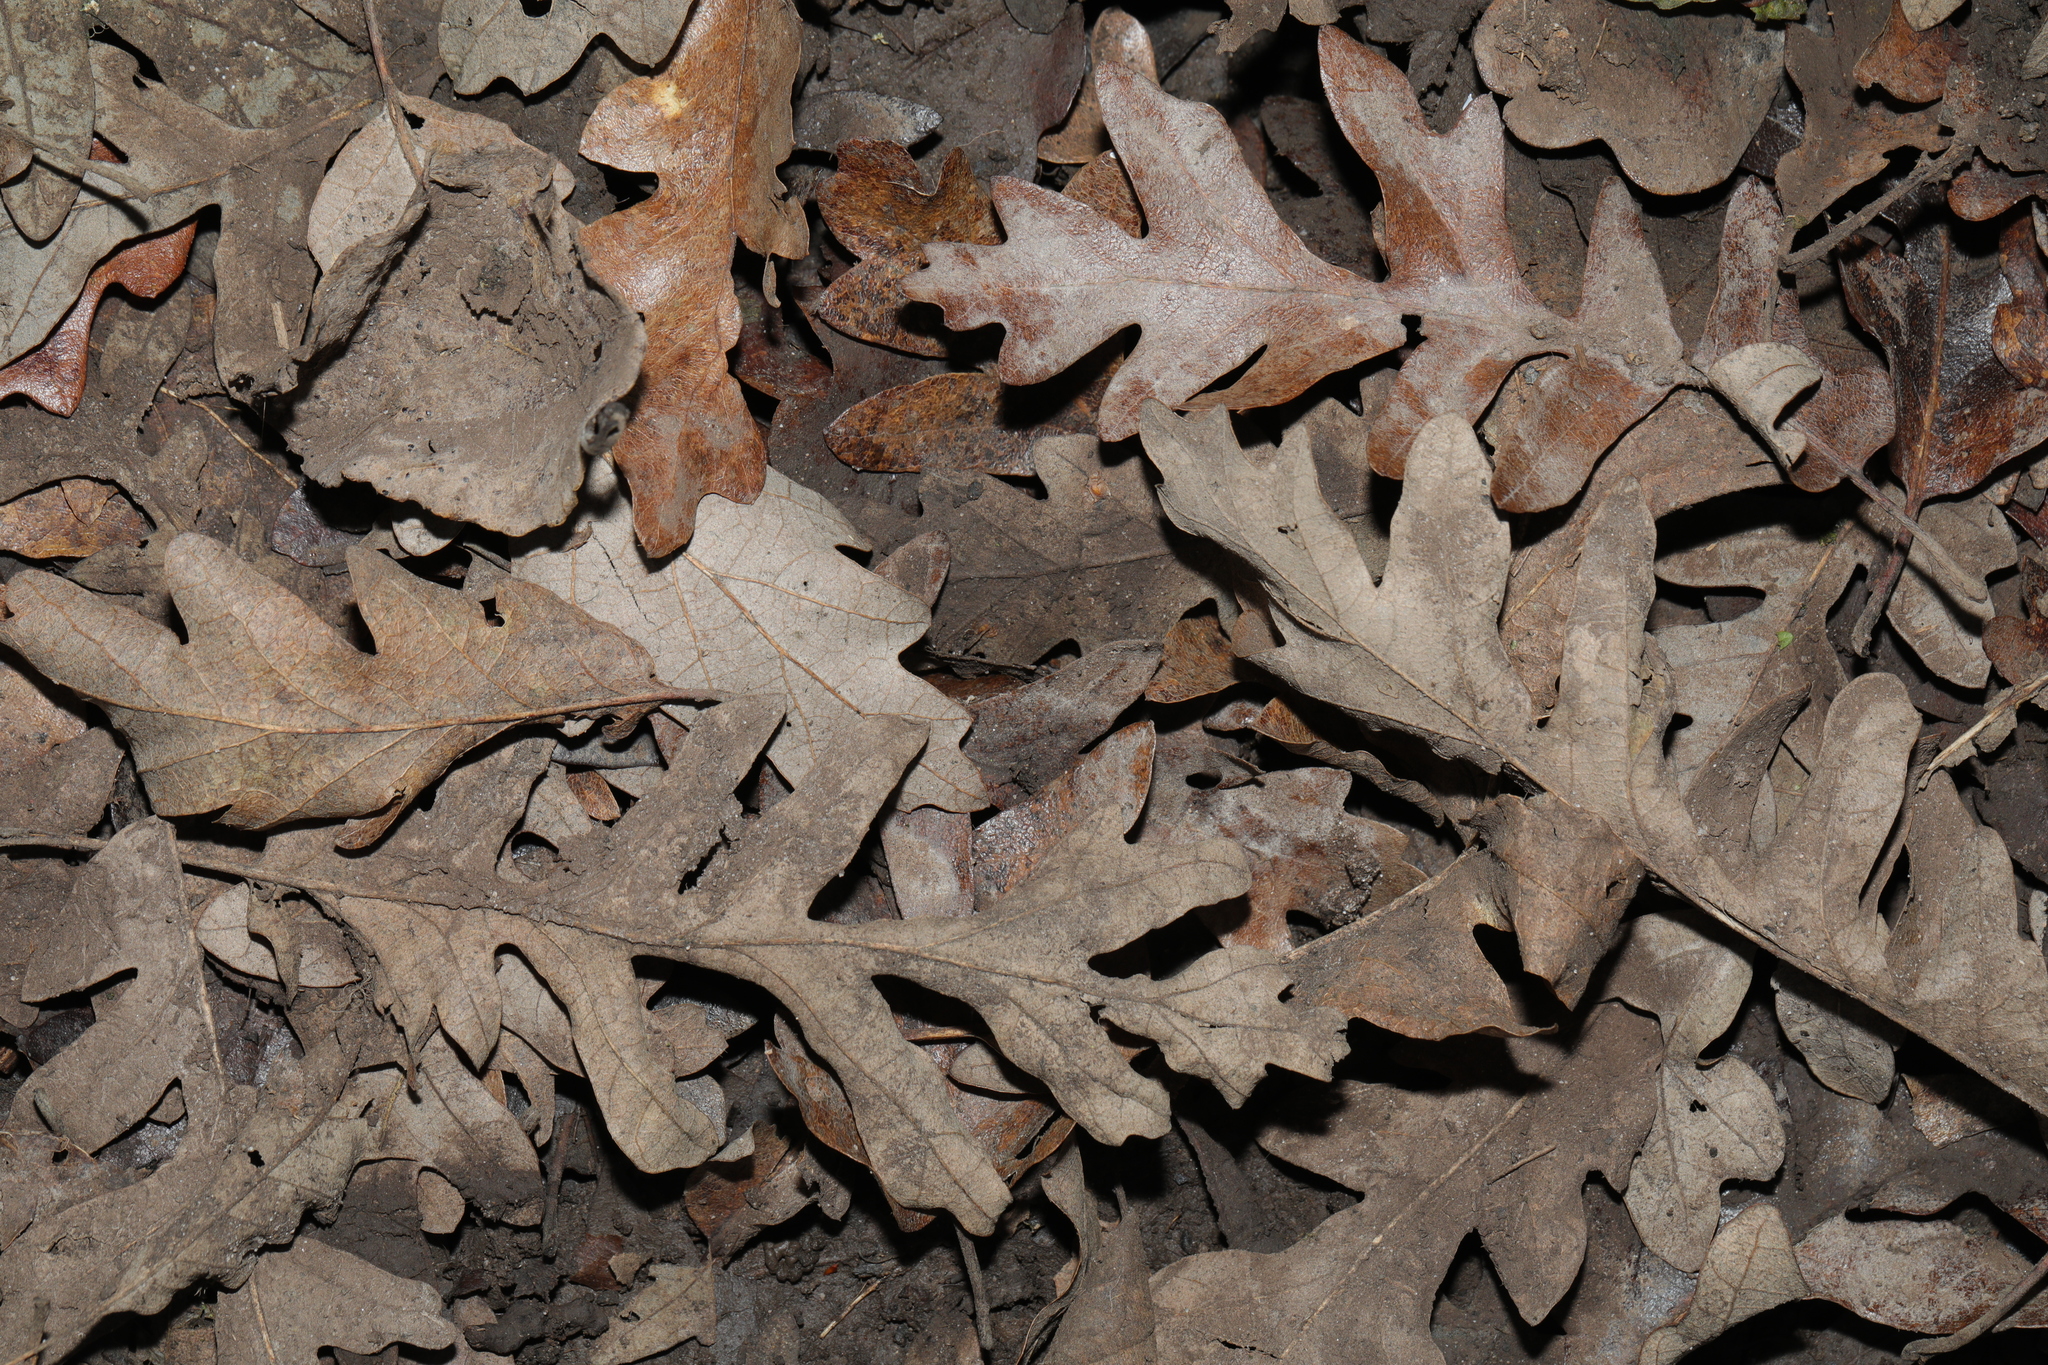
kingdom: Plantae
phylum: Tracheophyta
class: Magnoliopsida
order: Fagales
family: Fagaceae
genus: Quercus
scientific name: Quercus cerris
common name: Turkey oak
